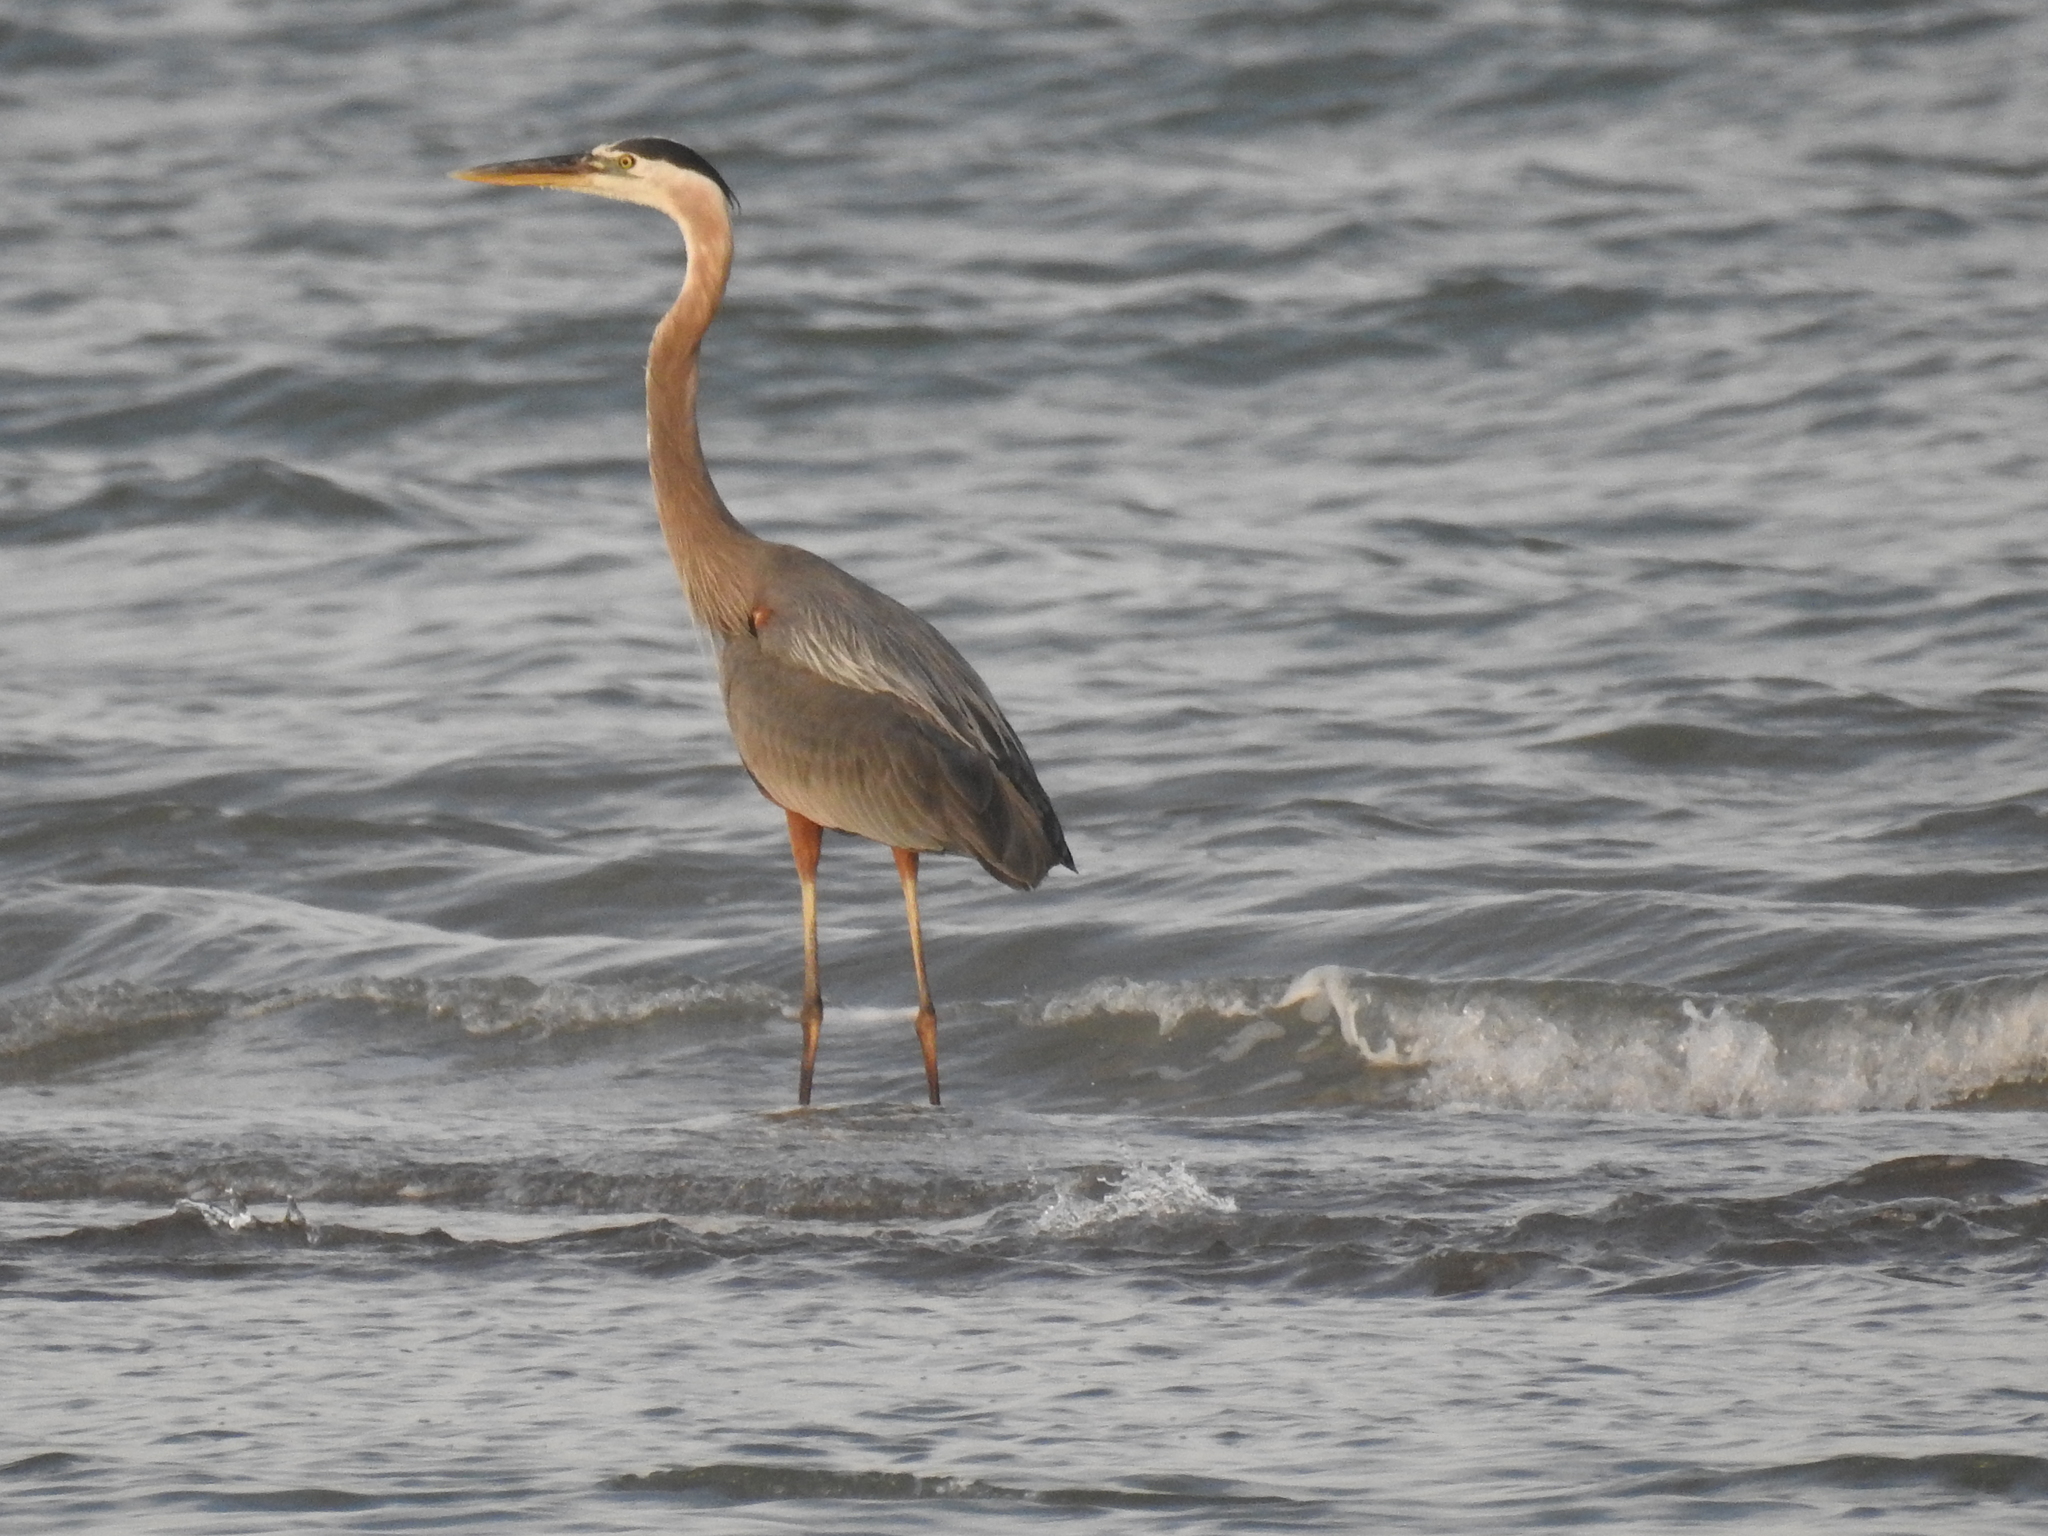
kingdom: Animalia
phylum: Chordata
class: Aves
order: Pelecaniformes
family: Ardeidae
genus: Ardea
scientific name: Ardea herodias
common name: Great blue heron
